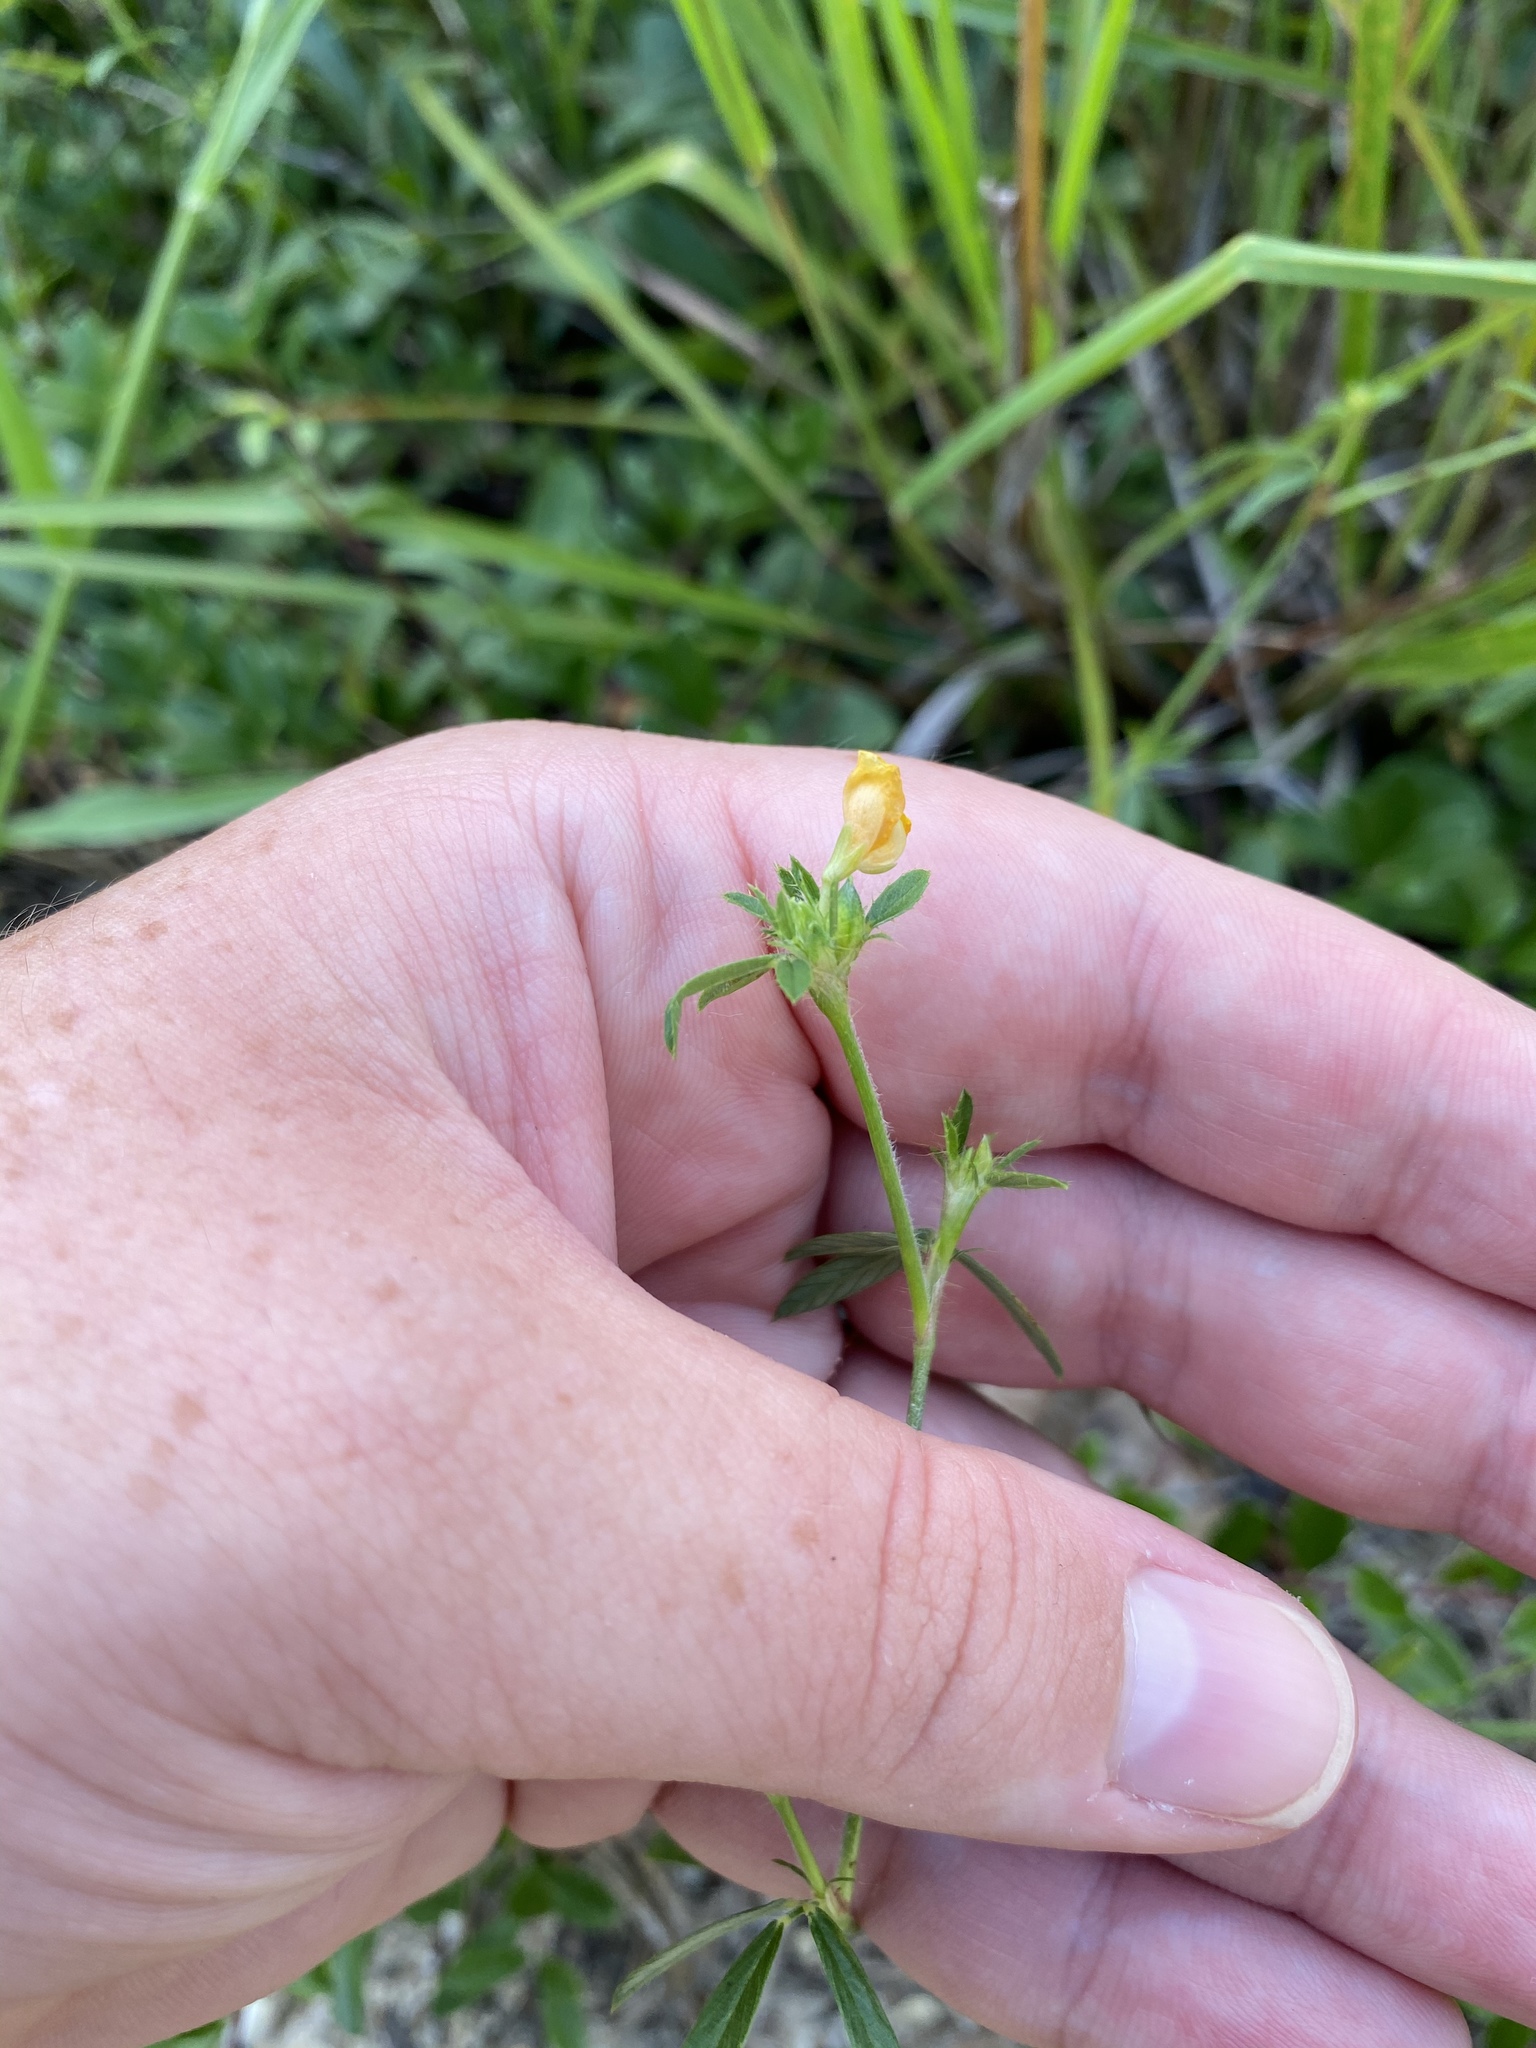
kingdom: Plantae
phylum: Tracheophyta
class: Magnoliopsida
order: Fabales
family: Fabaceae
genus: Stylosanthes
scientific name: Stylosanthes biflora
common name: Two-flower pencil-flower
